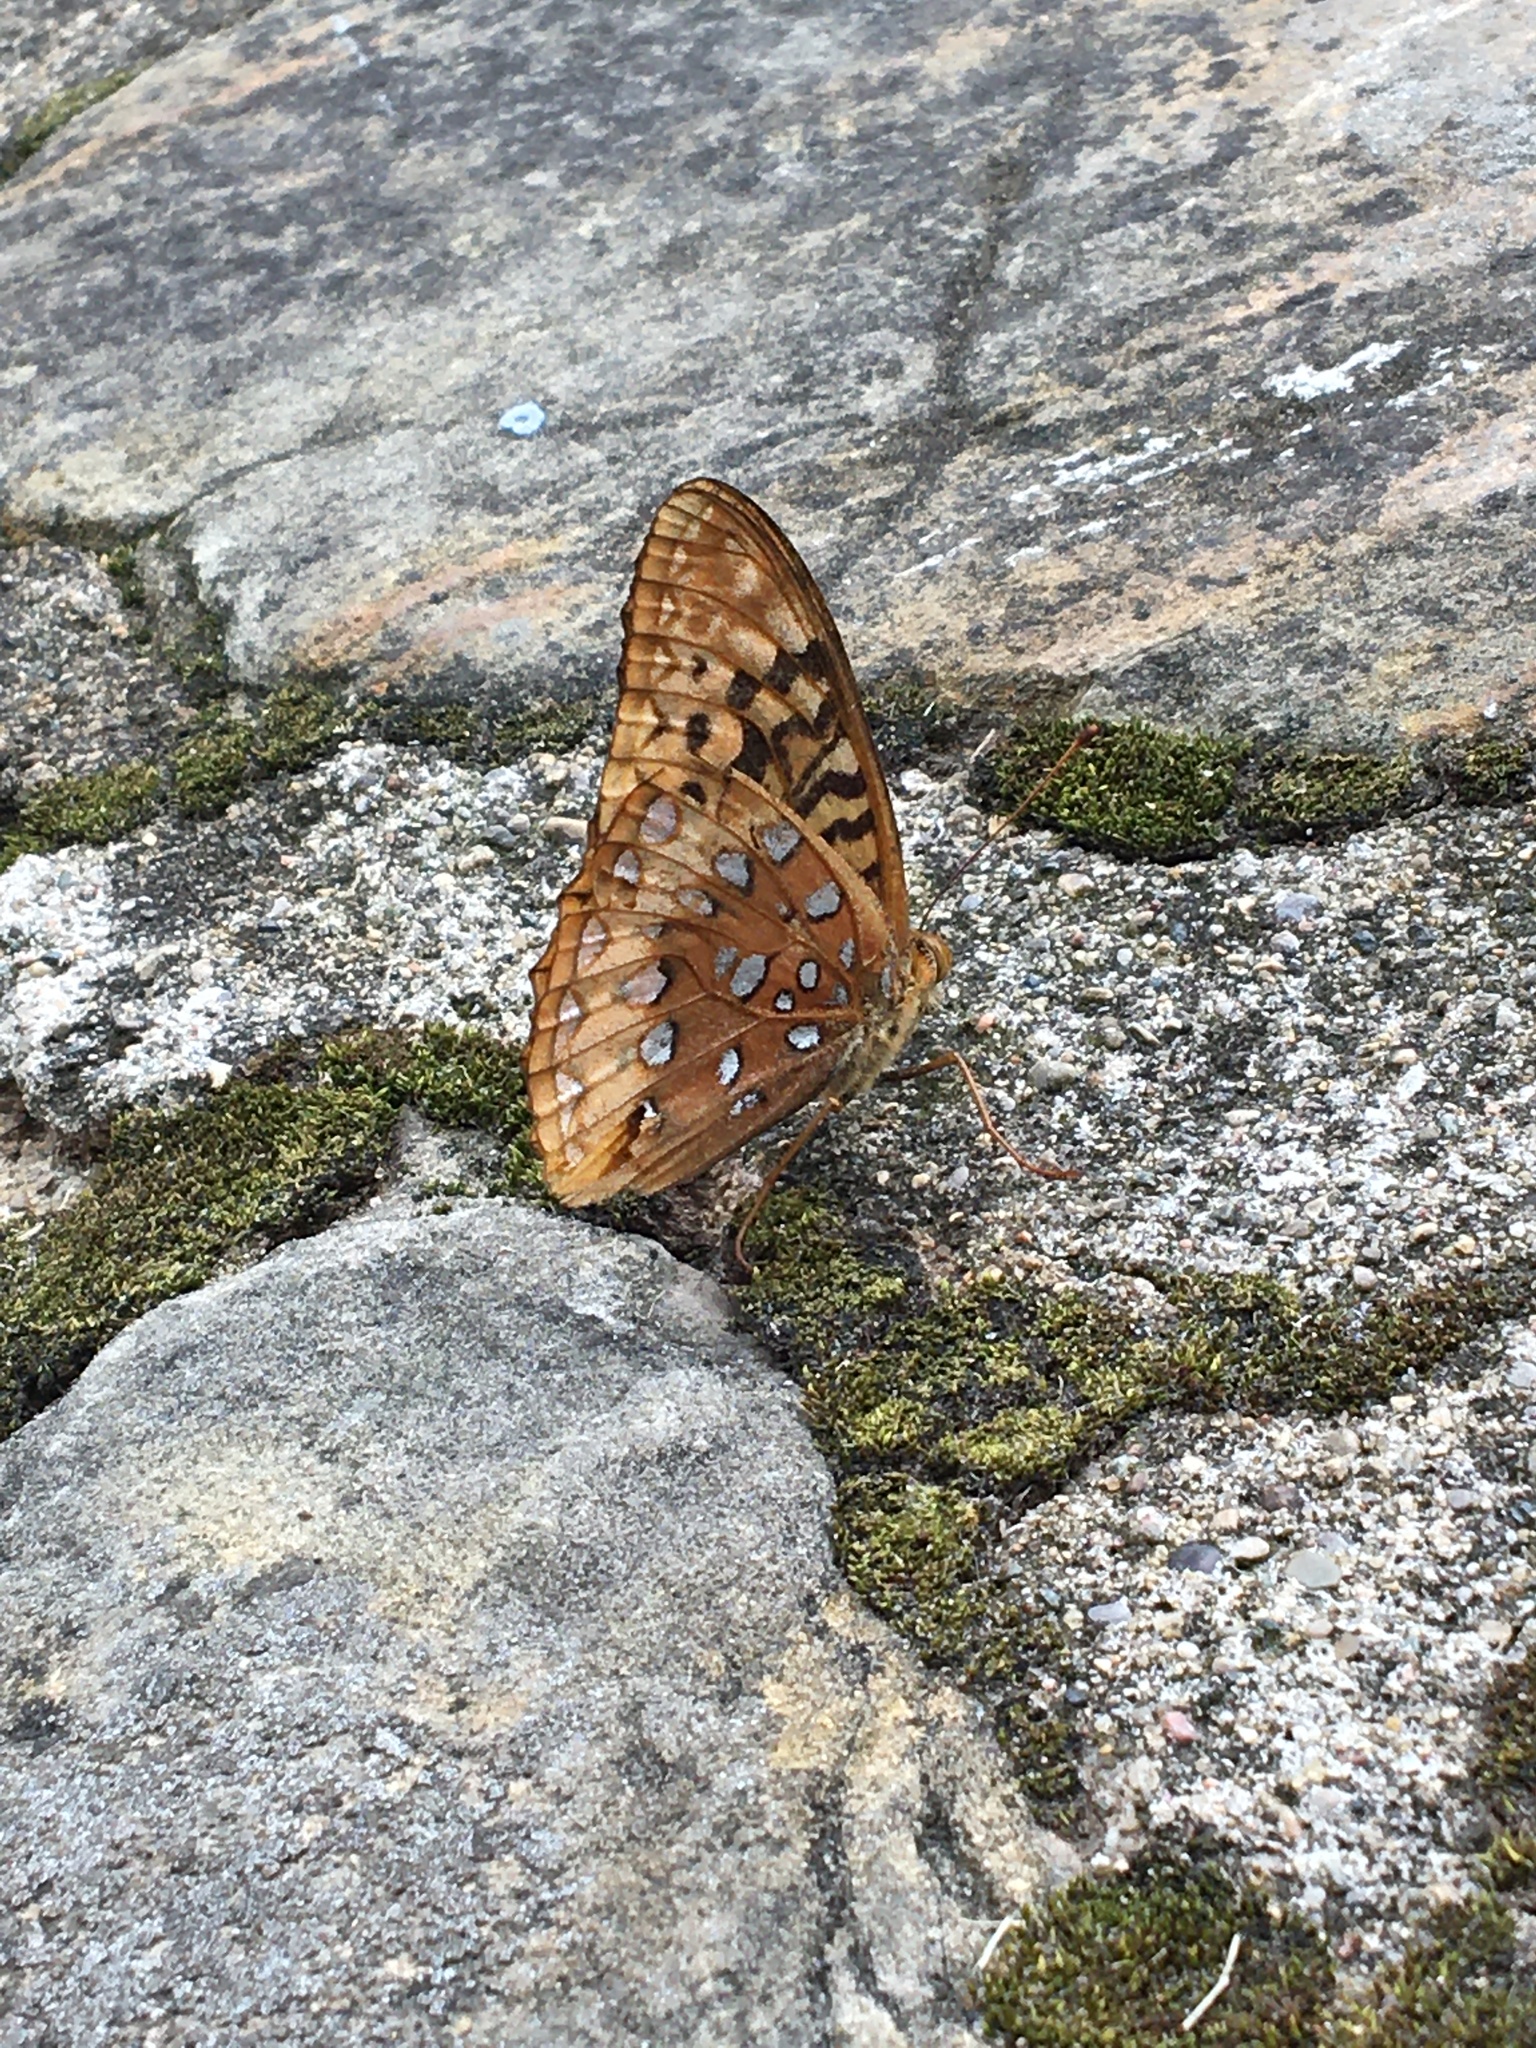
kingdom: Animalia
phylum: Arthropoda
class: Insecta
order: Lepidoptera
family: Nymphalidae
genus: Speyeria
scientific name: Speyeria cybele
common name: Great spangled fritillary
